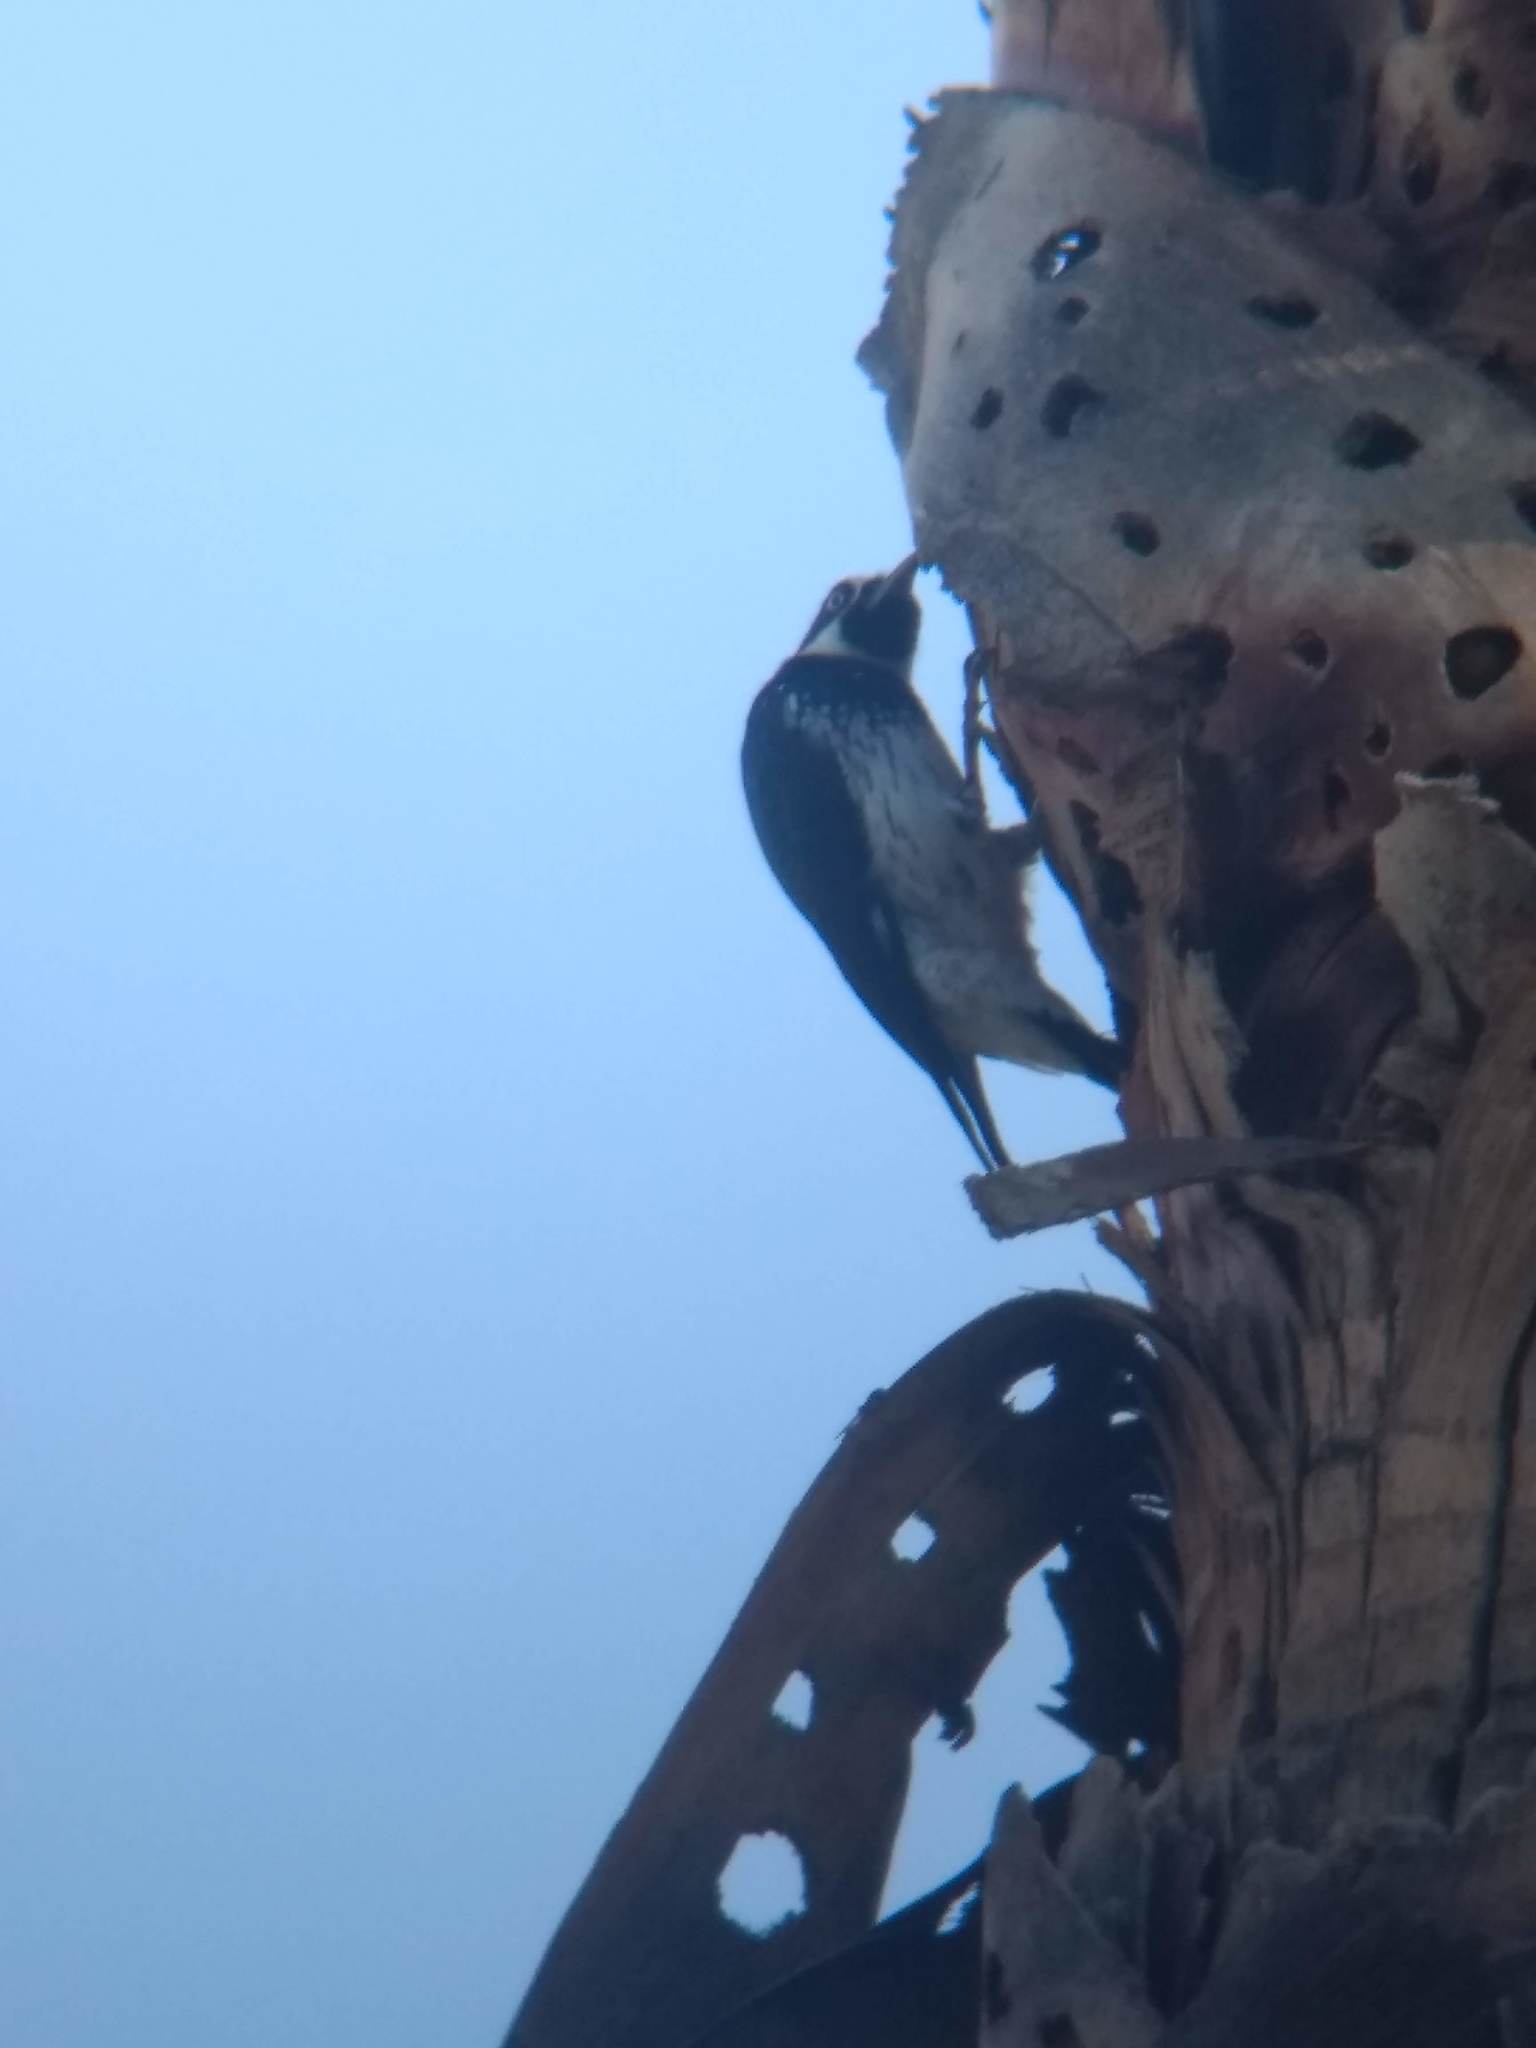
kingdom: Animalia
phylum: Chordata
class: Aves
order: Piciformes
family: Picidae
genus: Melanerpes
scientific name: Melanerpes formicivorus
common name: Acorn woodpecker
